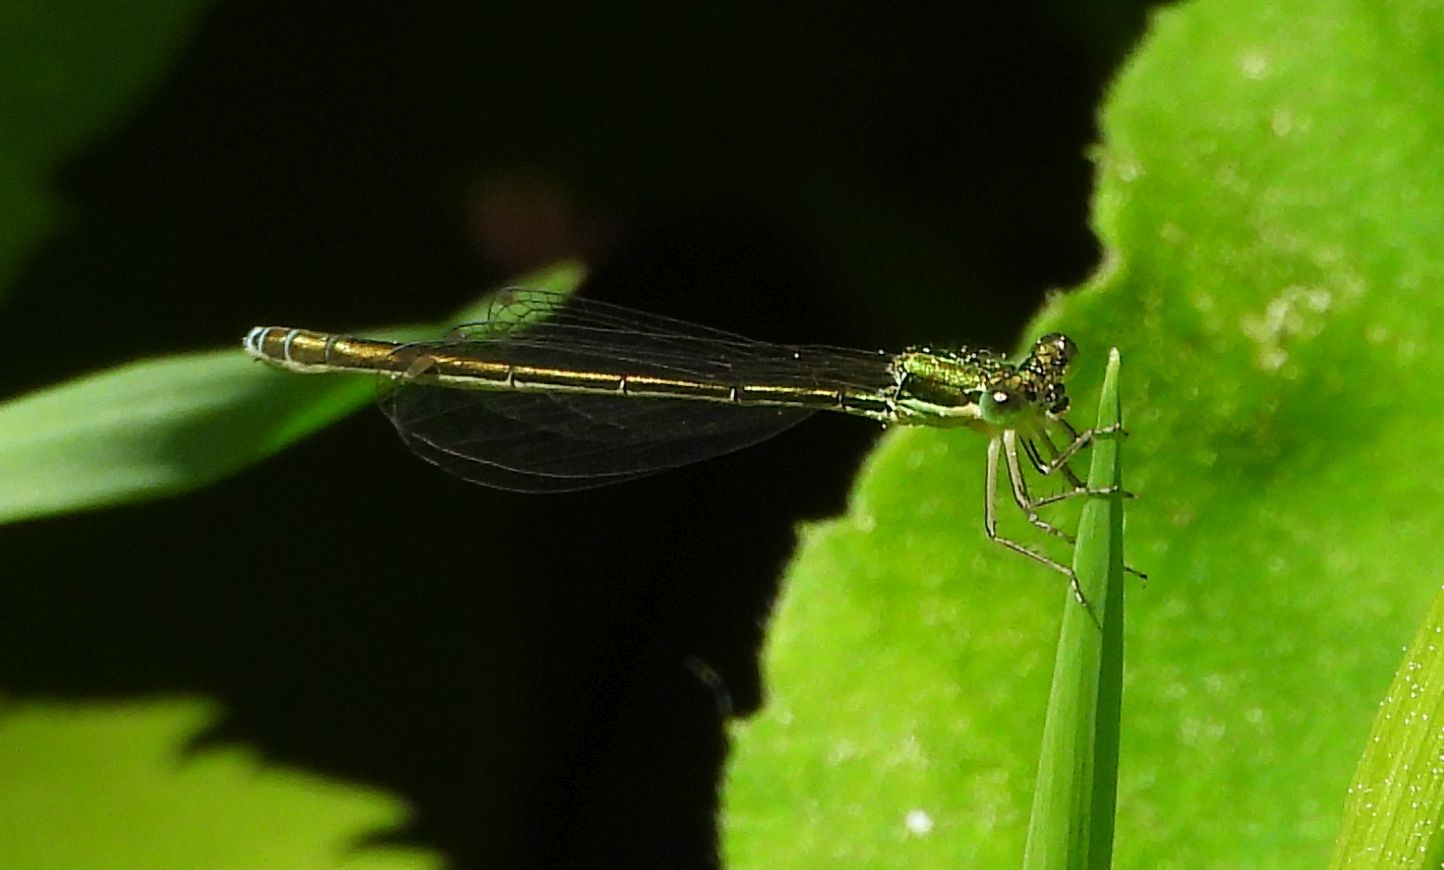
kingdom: Animalia
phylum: Arthropoda
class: Insecta
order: Odonata
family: Coenagrionidae
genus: Nehalennia
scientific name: Nehalennia irene
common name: Sedge sprite
